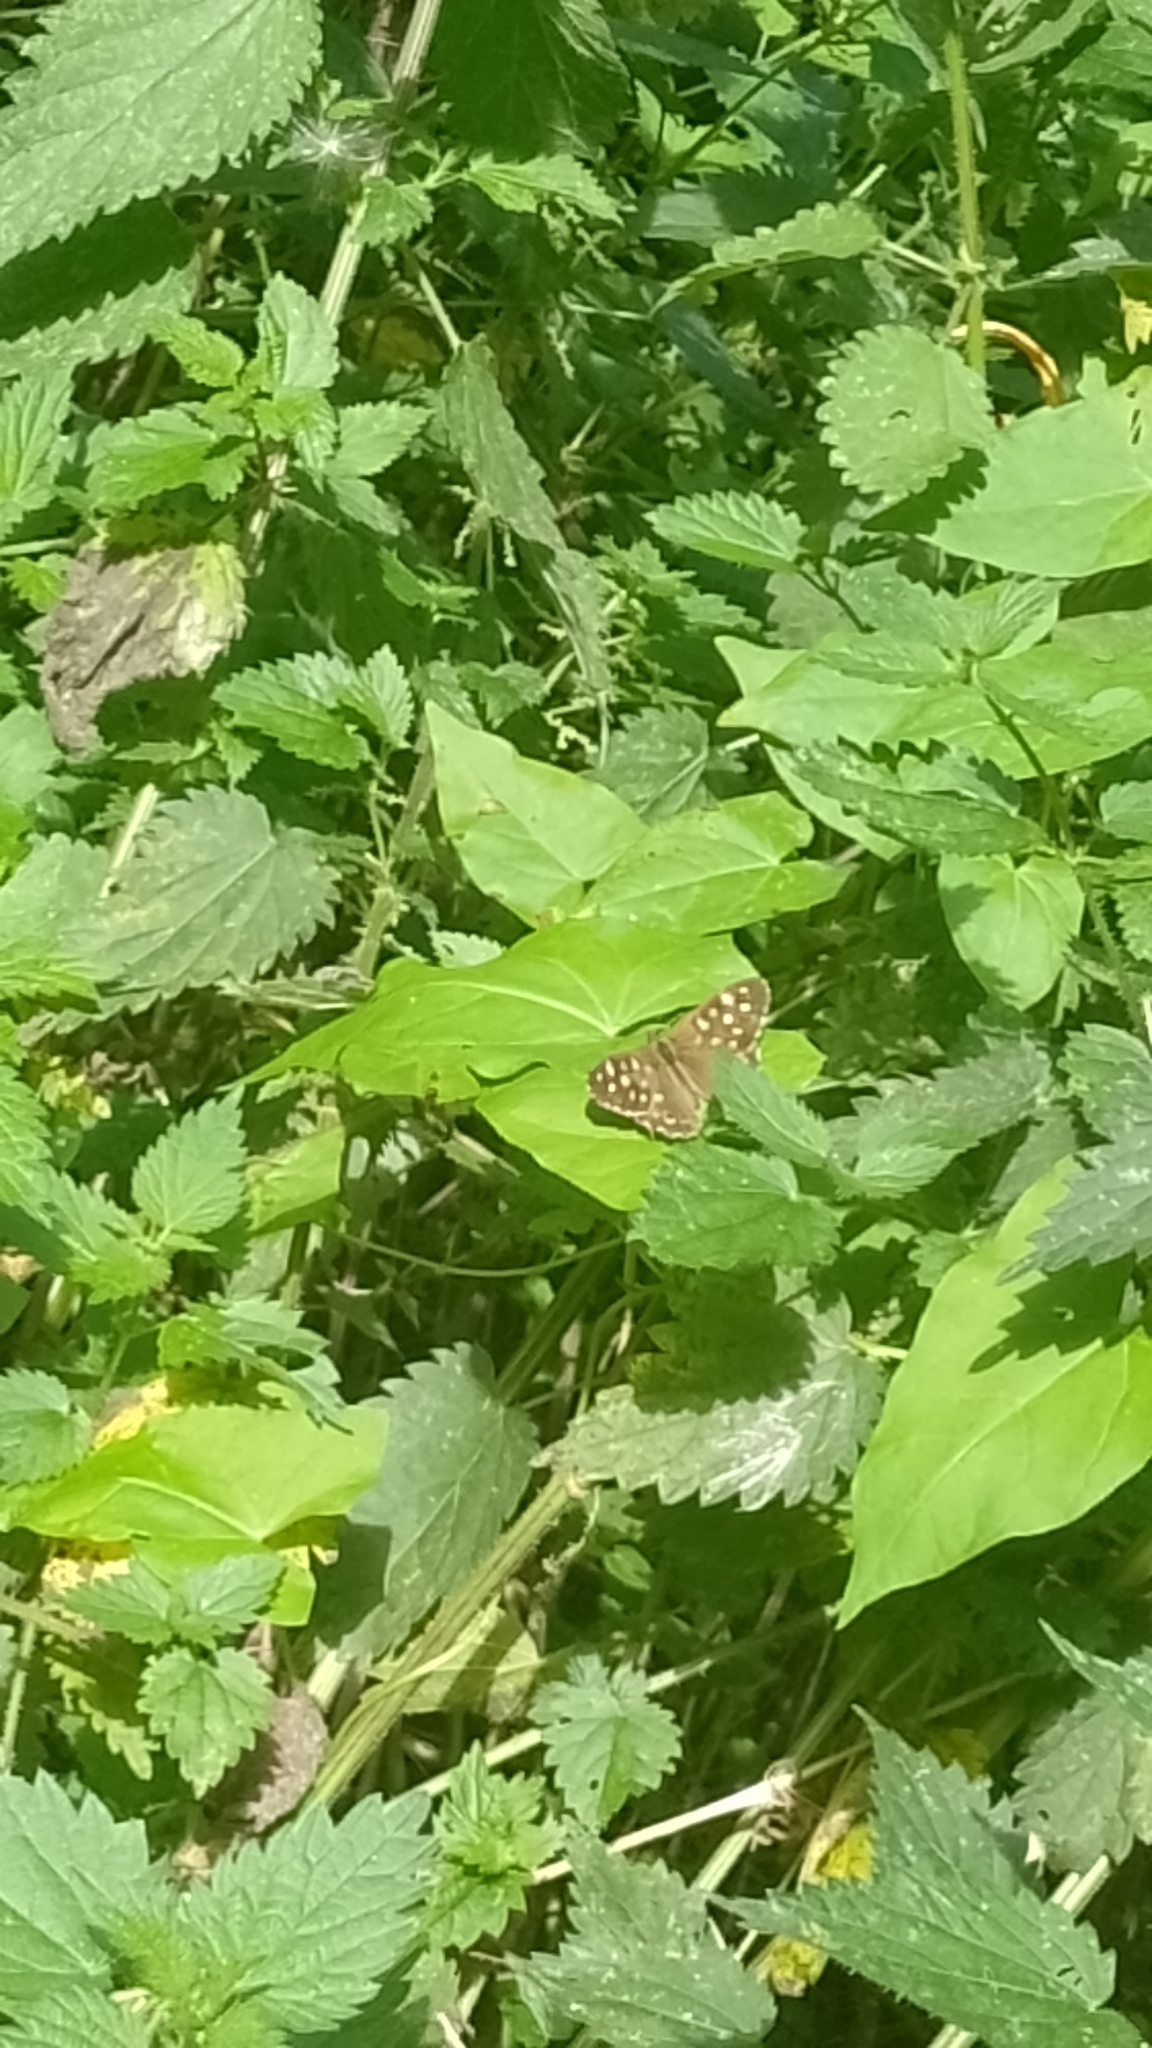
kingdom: Animalia
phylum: Arthropoda
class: Insecta
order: Lepidoptera
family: Nymphalidae
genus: Pararge
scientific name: Pararge aegeria
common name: Speckled wood
